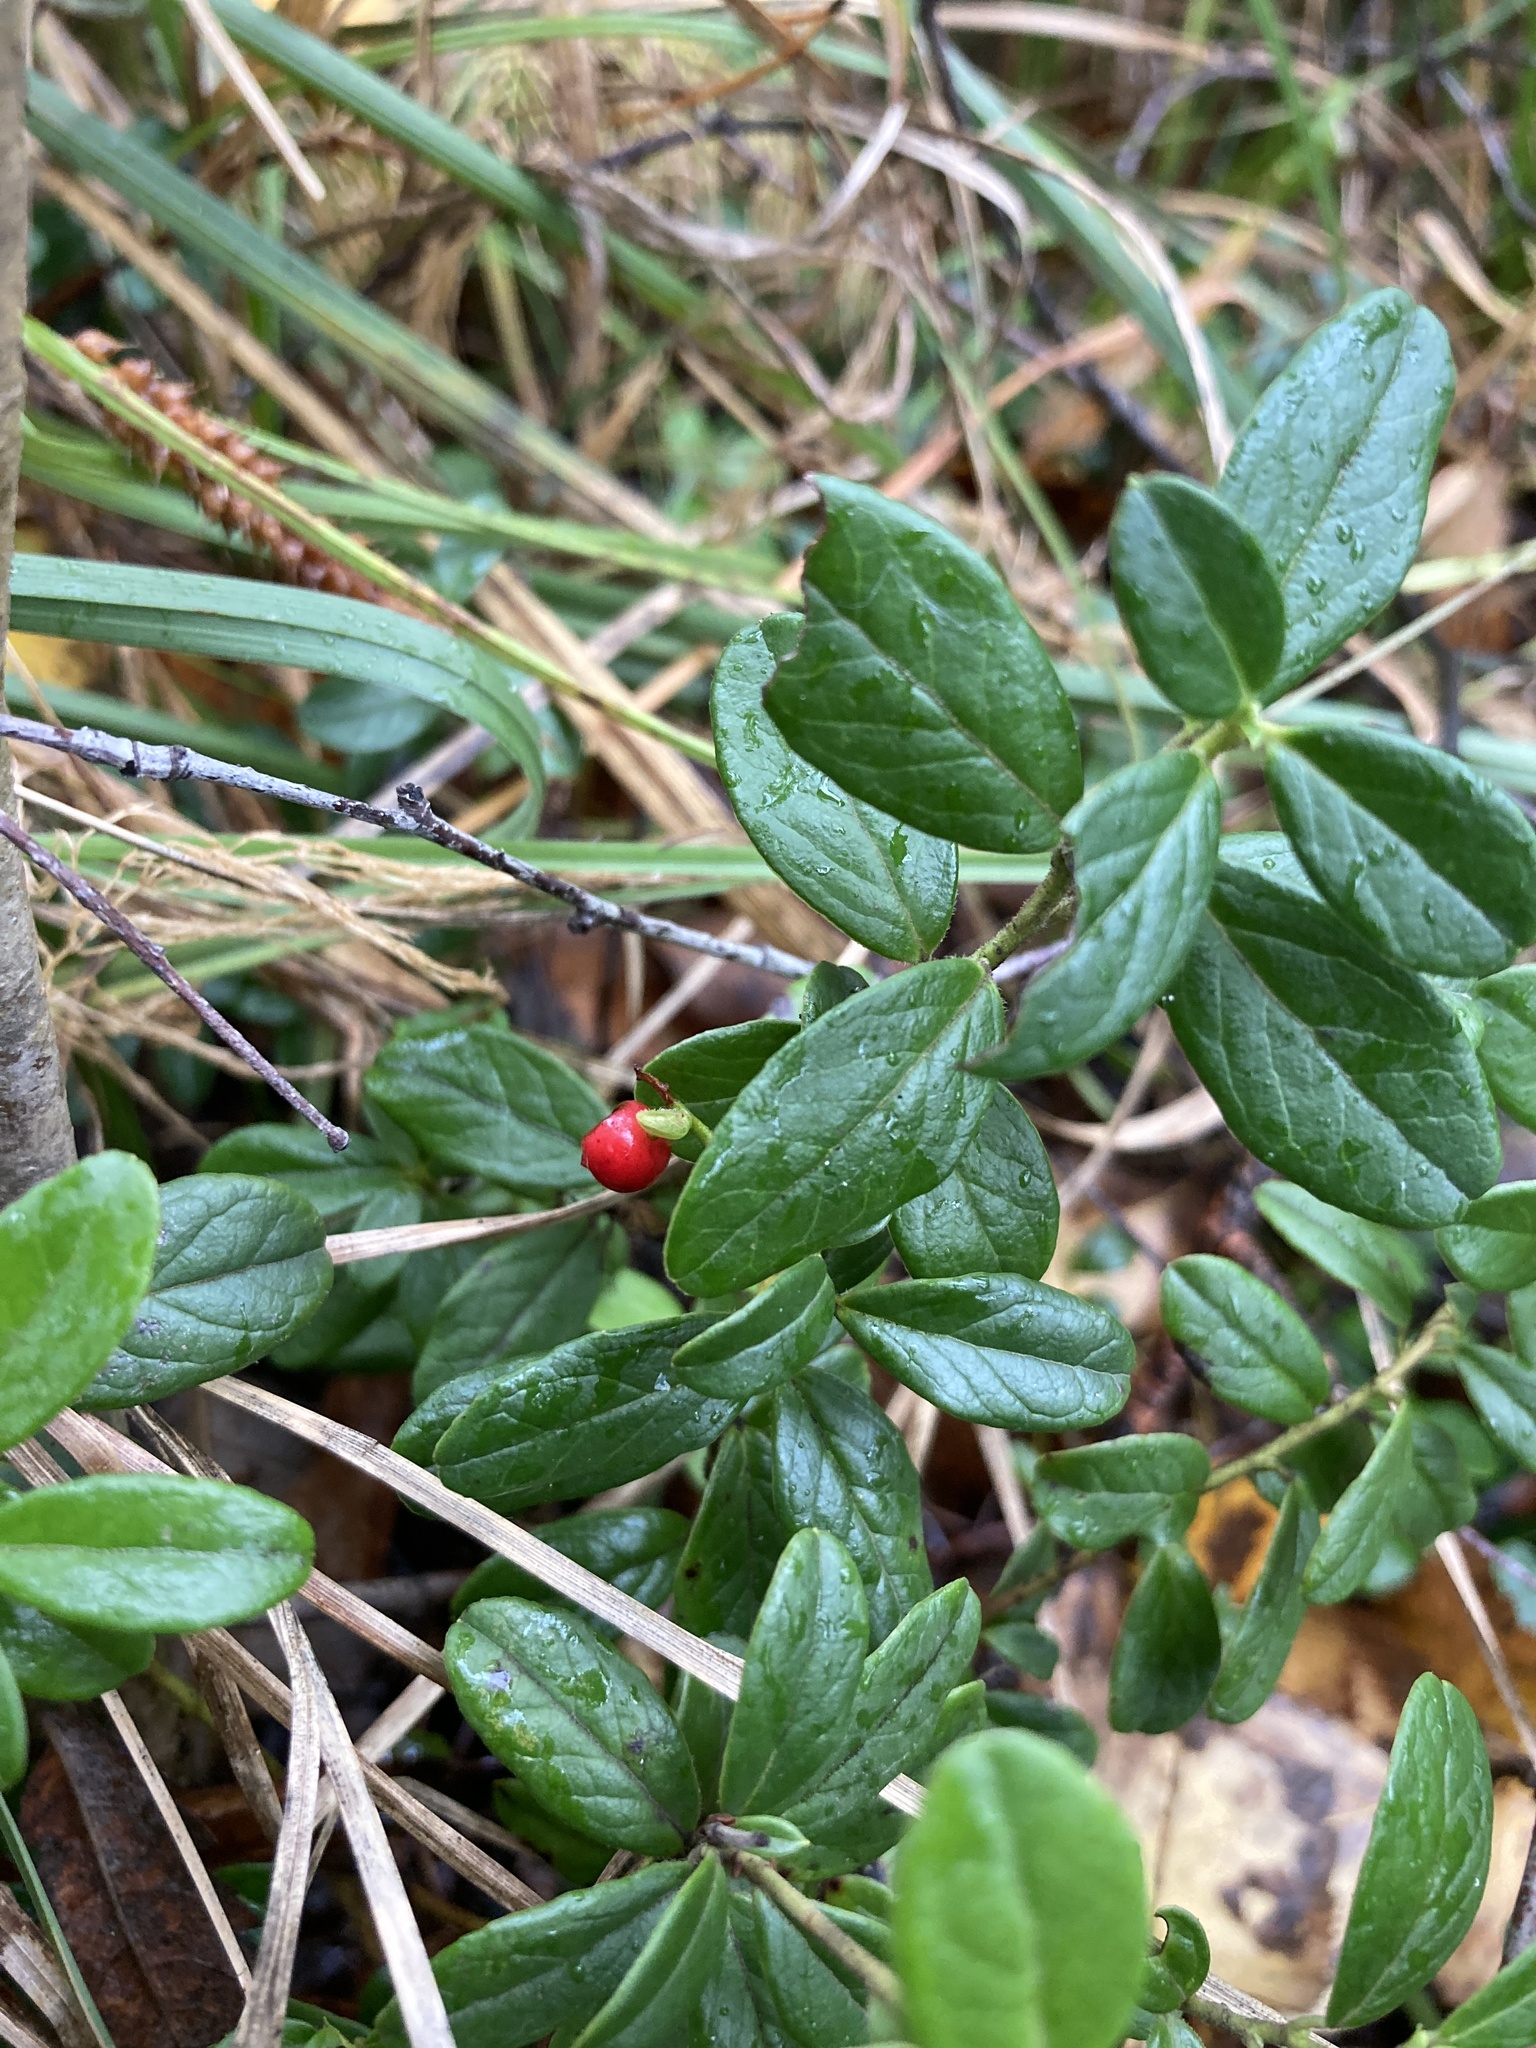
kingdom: Plantae
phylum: Tracheophyta
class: Magnoliopsida
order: Ericales
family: Ericaceae
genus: Vaccinium
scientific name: Vaccinium vitis-idaea
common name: Cowberry
